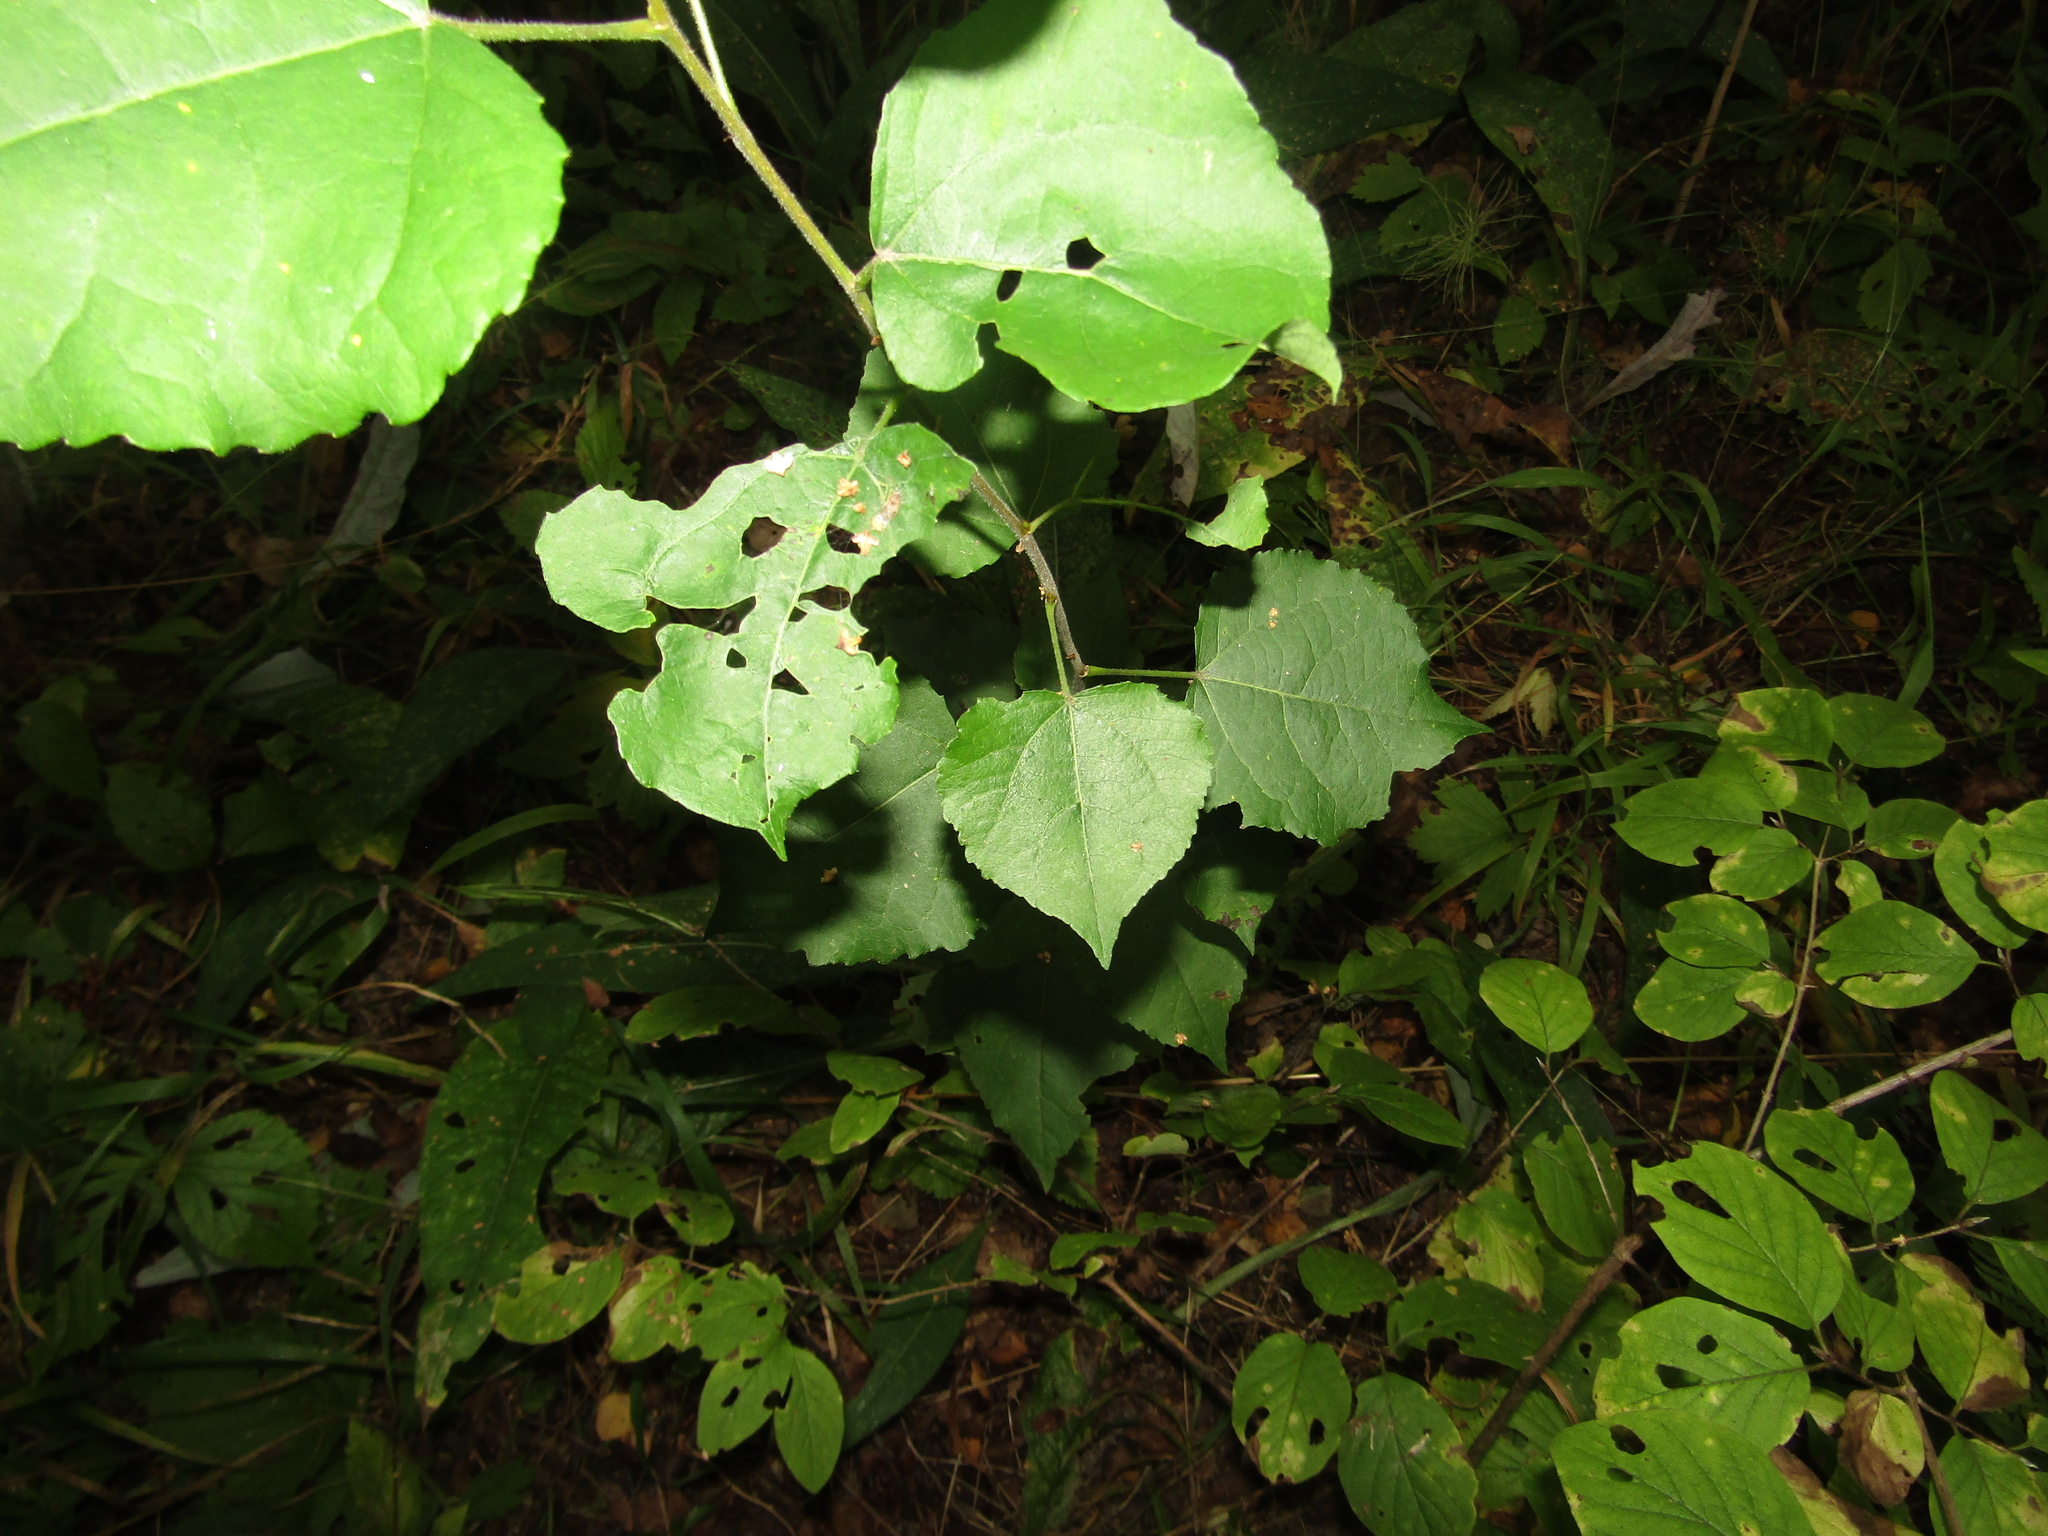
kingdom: Plantae
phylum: Tracheophyta
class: Magnoliopsida
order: Malpighiales
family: Salicaceae
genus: Populus
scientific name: Populus tremula
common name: European aspen
